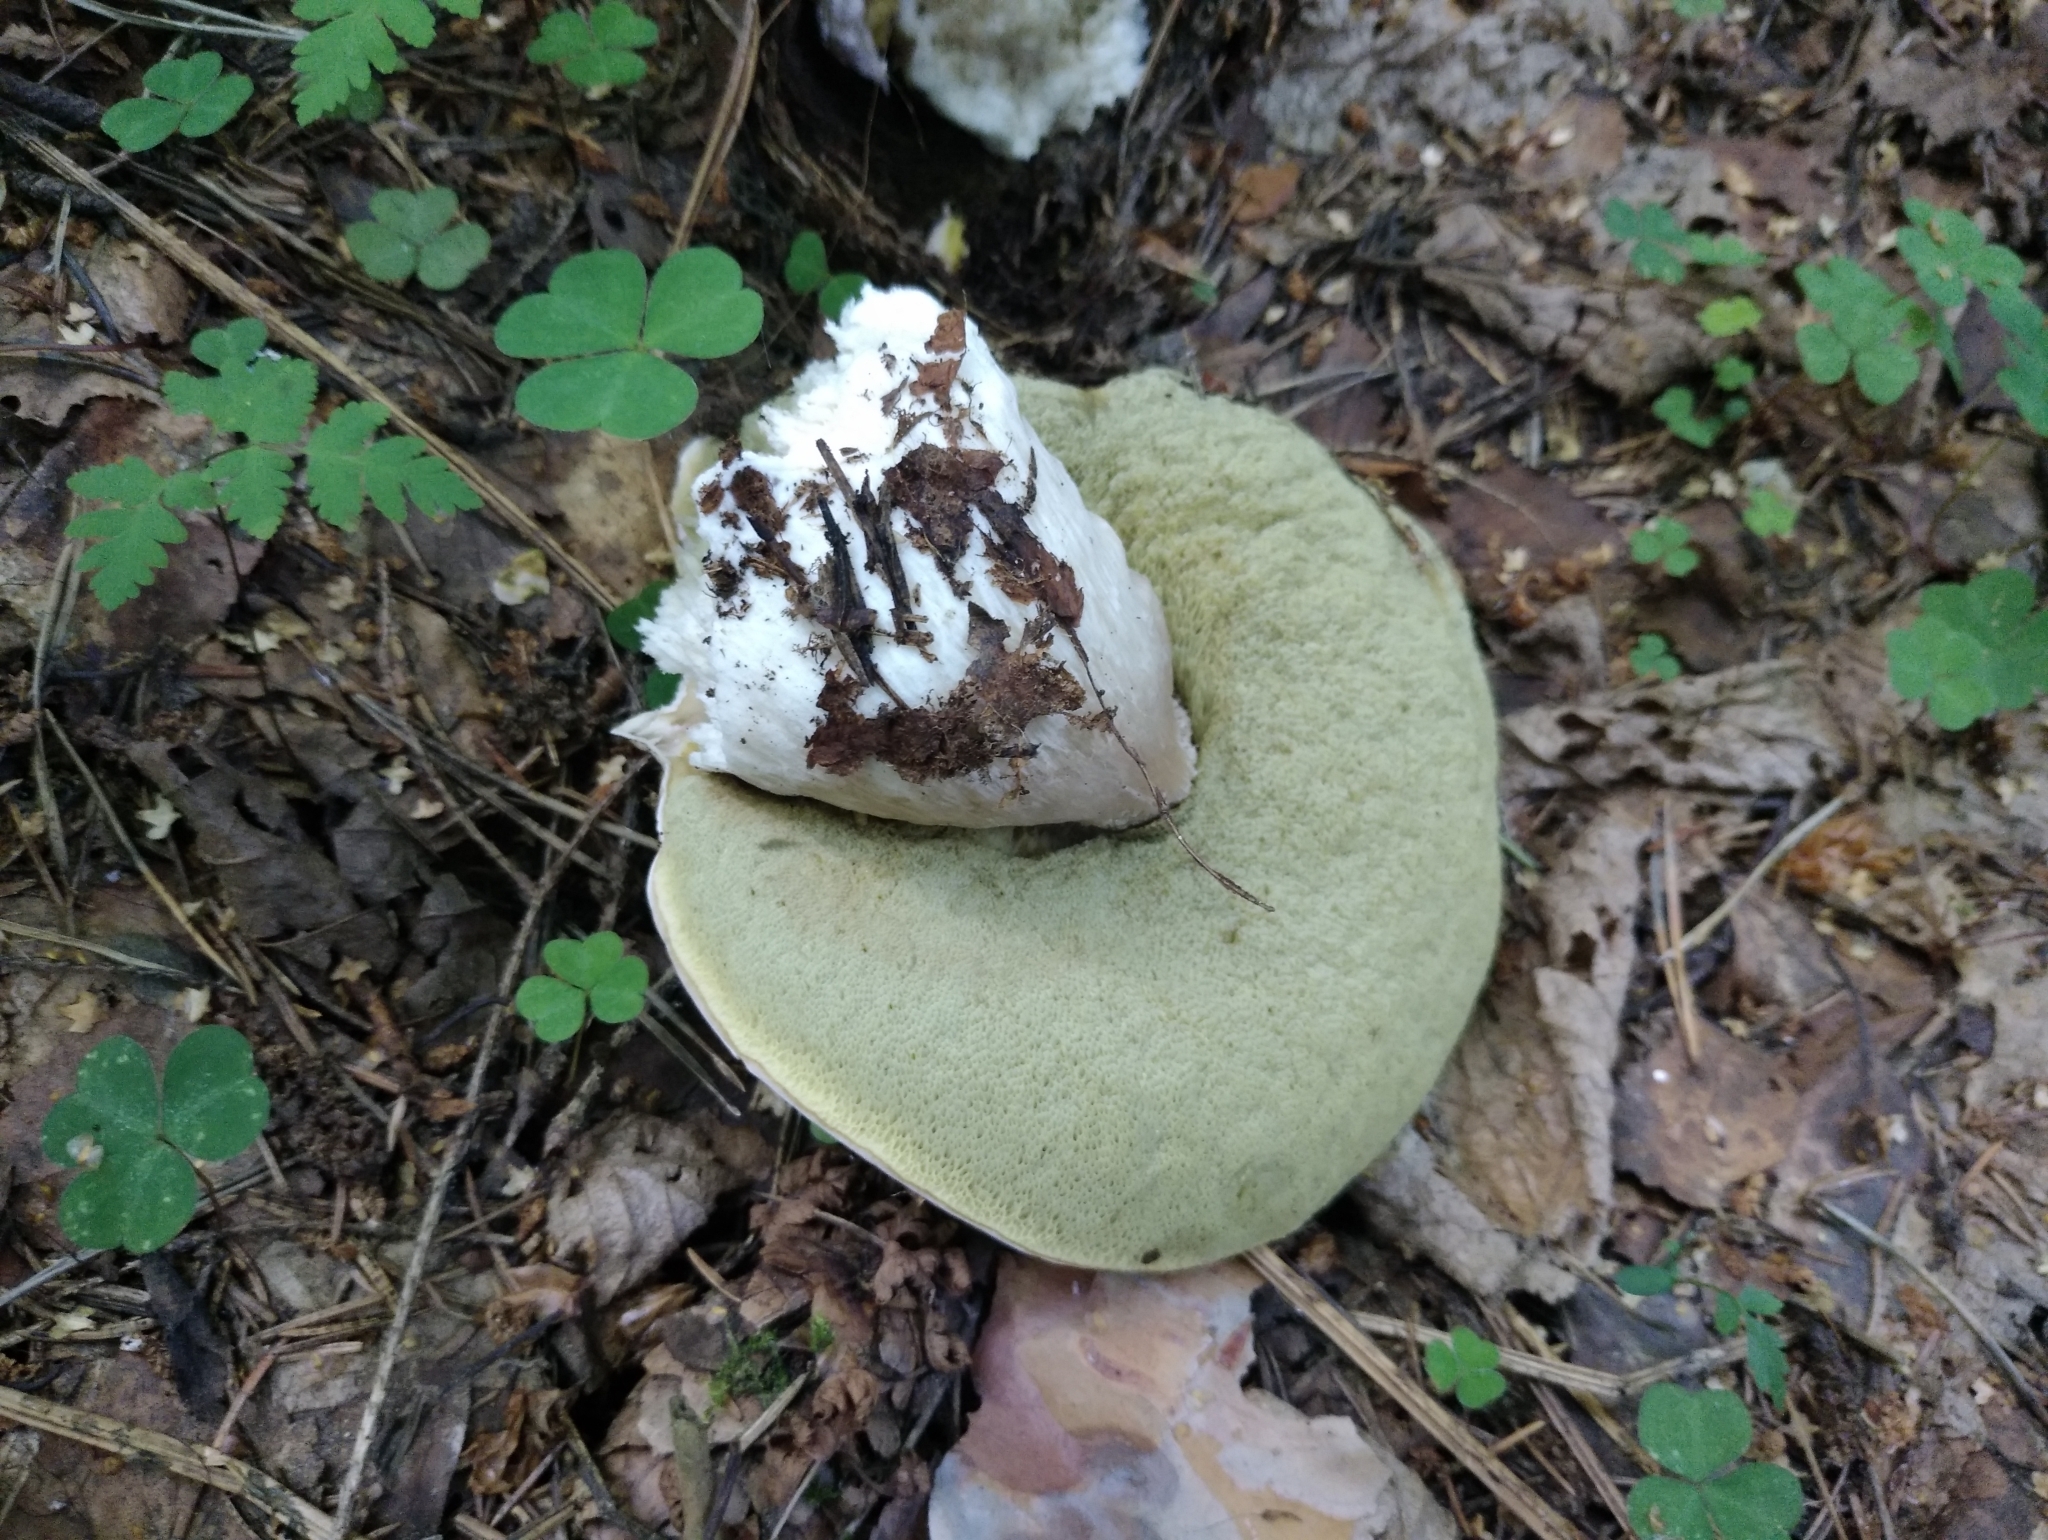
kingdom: Fungi
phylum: Basidiomycota
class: Agaricomycetes
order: Boletales
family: Boletaceae
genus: Boletus
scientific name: Boletus edulis
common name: Cep
